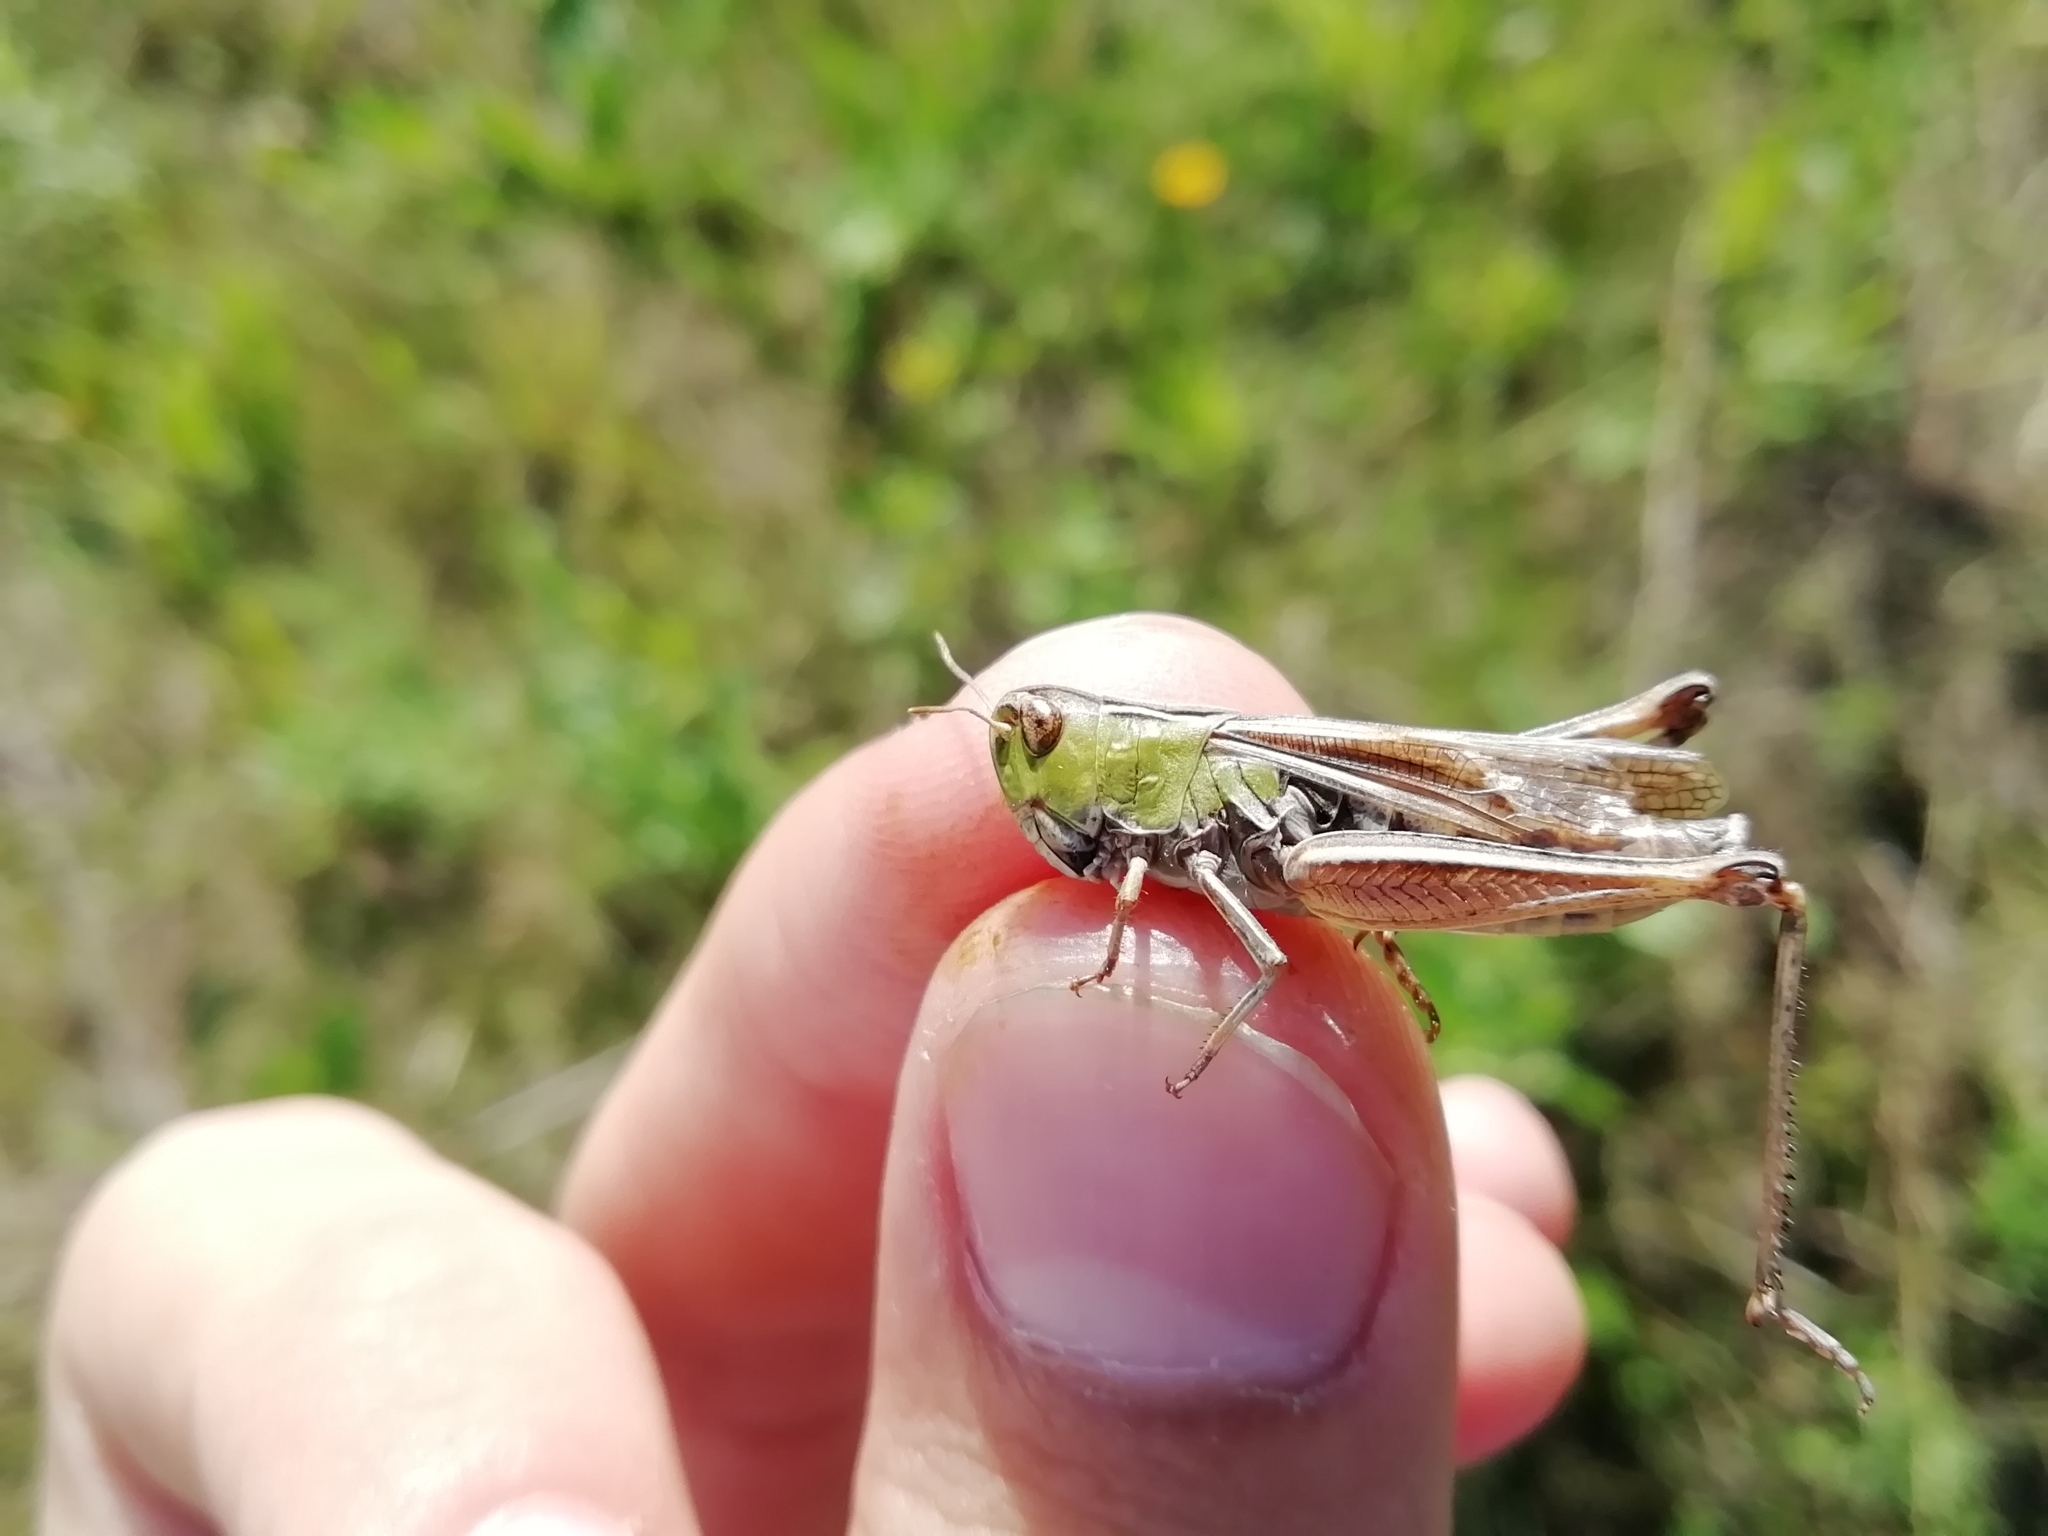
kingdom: Animalia
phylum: Arthropoda
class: Insecta
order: Orthoptera
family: Acrididae
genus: Stenobothrus
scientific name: Stenobothrus lineatus
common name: Stripe-winged grasshopper
